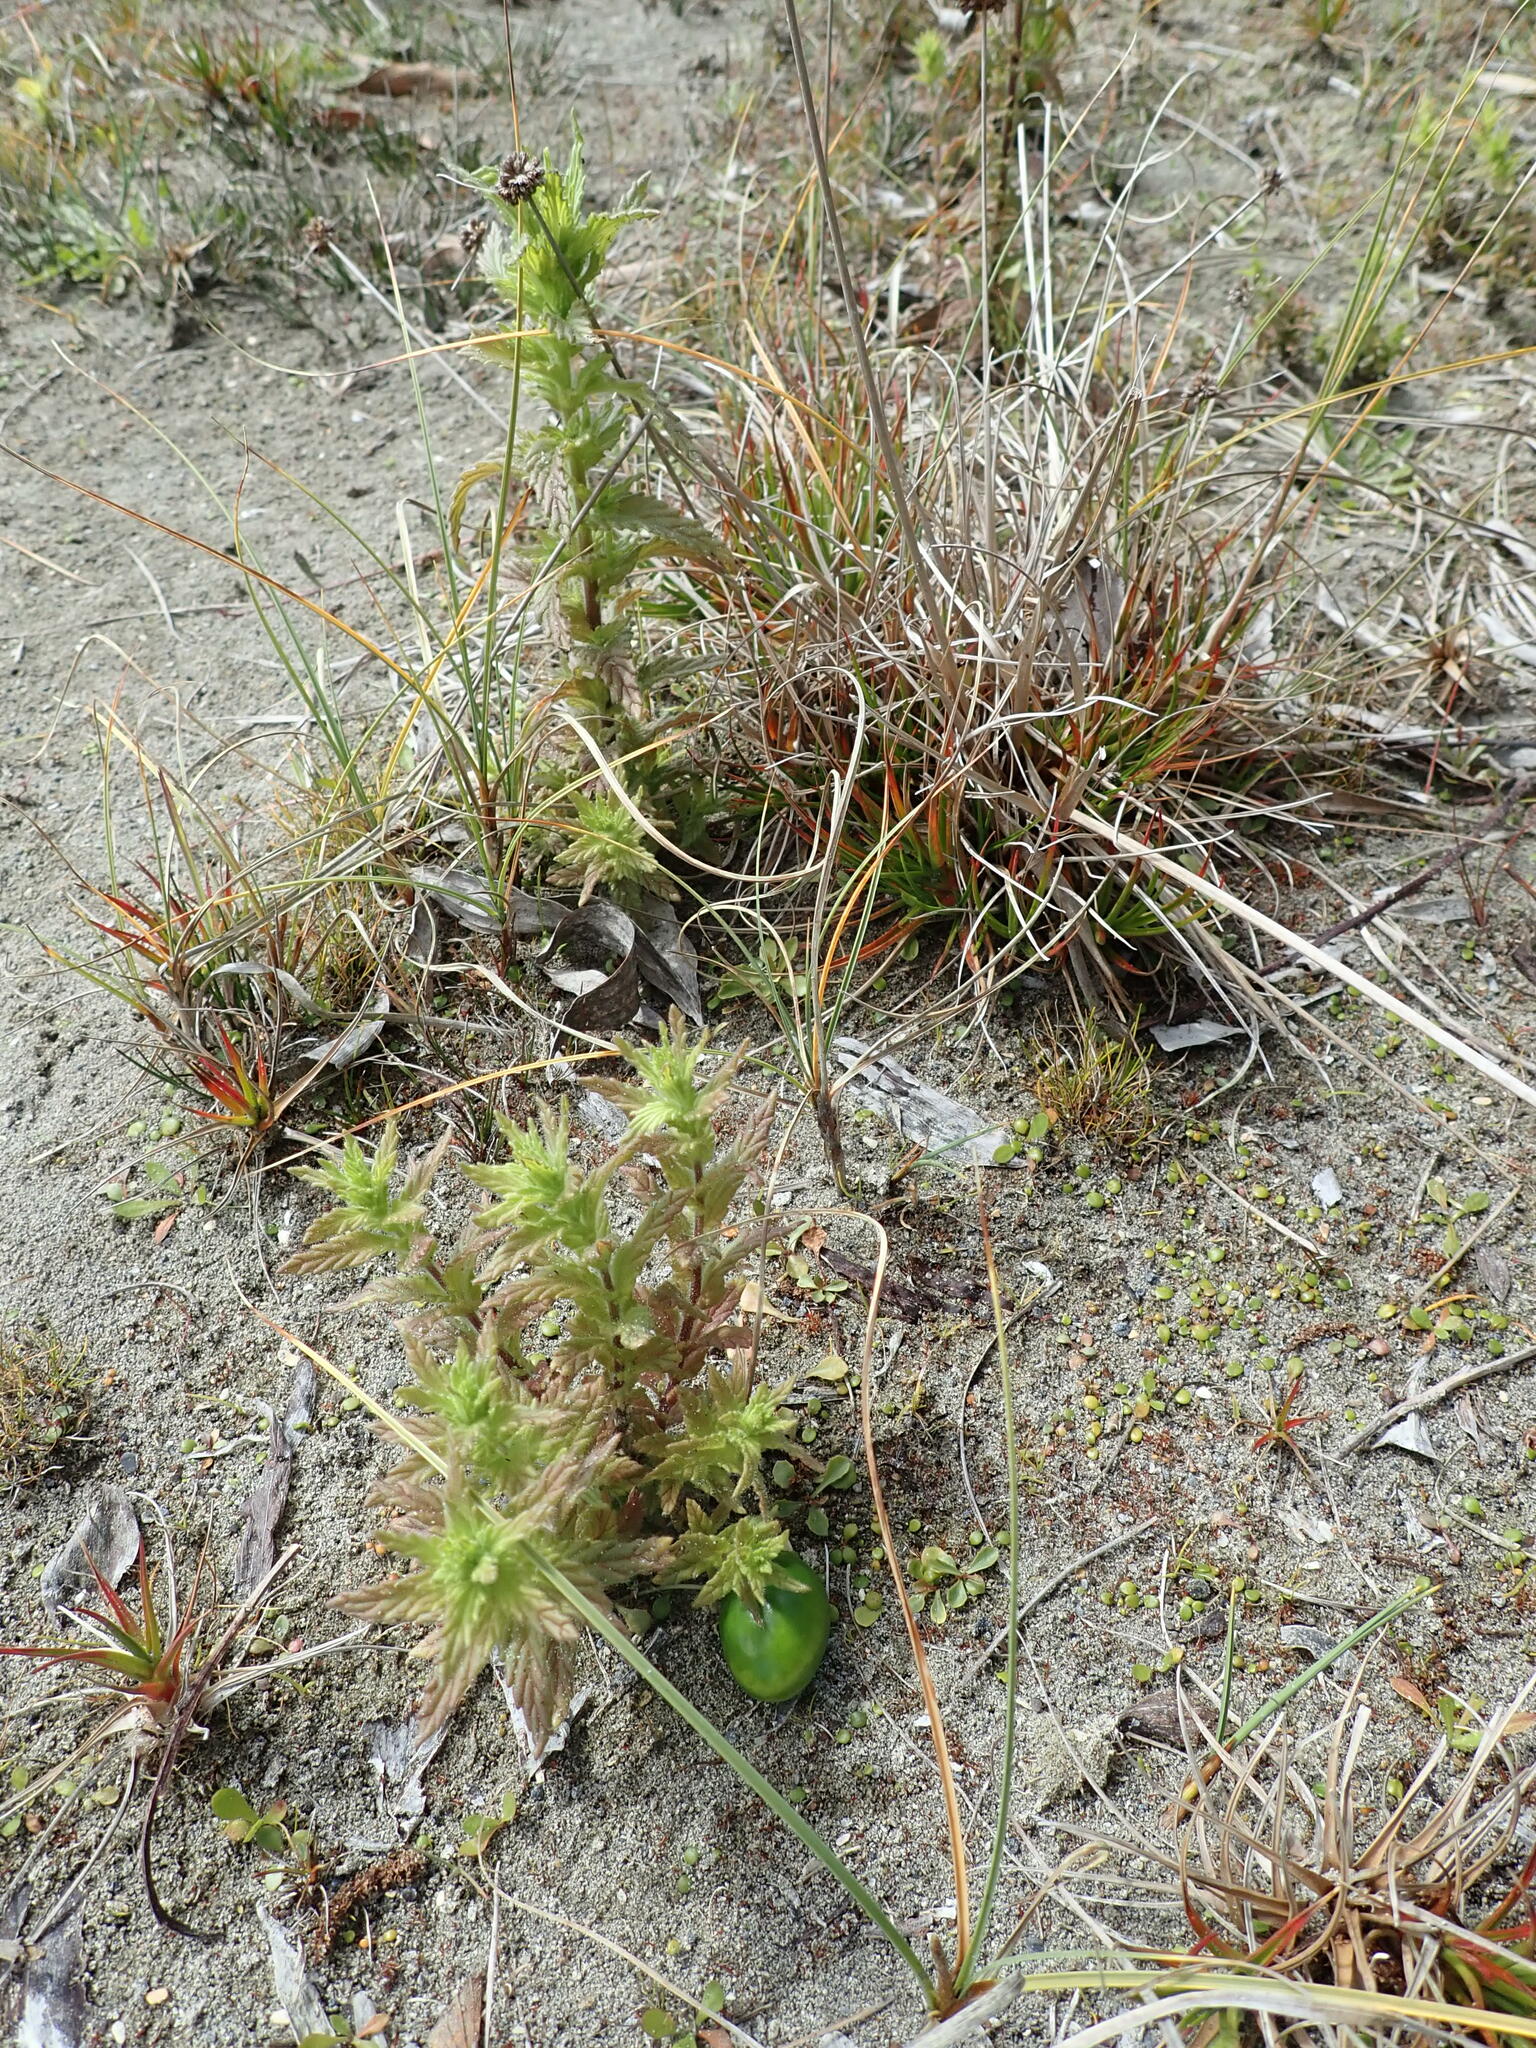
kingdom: Plantae
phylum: Tracheophyta
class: Magnoliopsida
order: Lamiales
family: Orobanchaceae
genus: Bellardia
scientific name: Bellardia viscosa
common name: Sticky parentucellia
